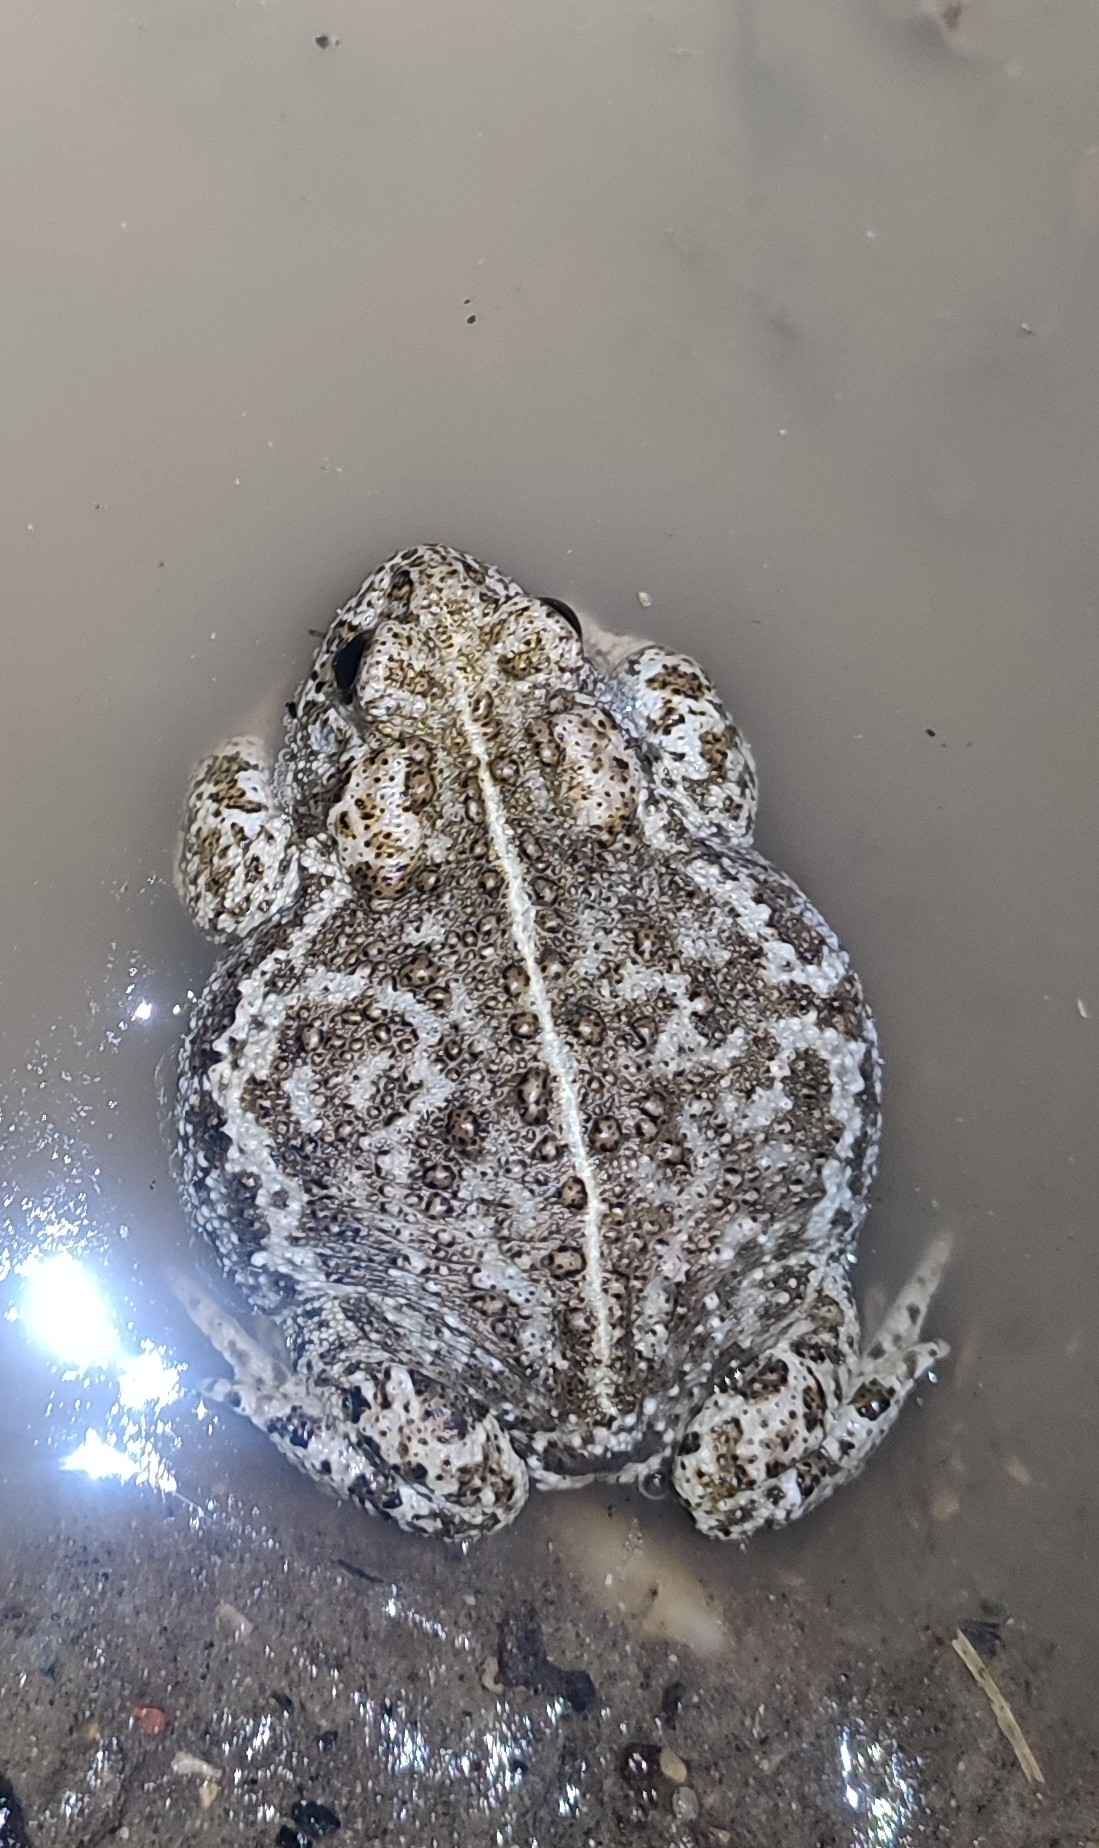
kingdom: Animalia
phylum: Chordata
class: Amphibia
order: Anura
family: Bufonidae
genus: Epidalea
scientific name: Epidalea calamita
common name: Natterjack toad
